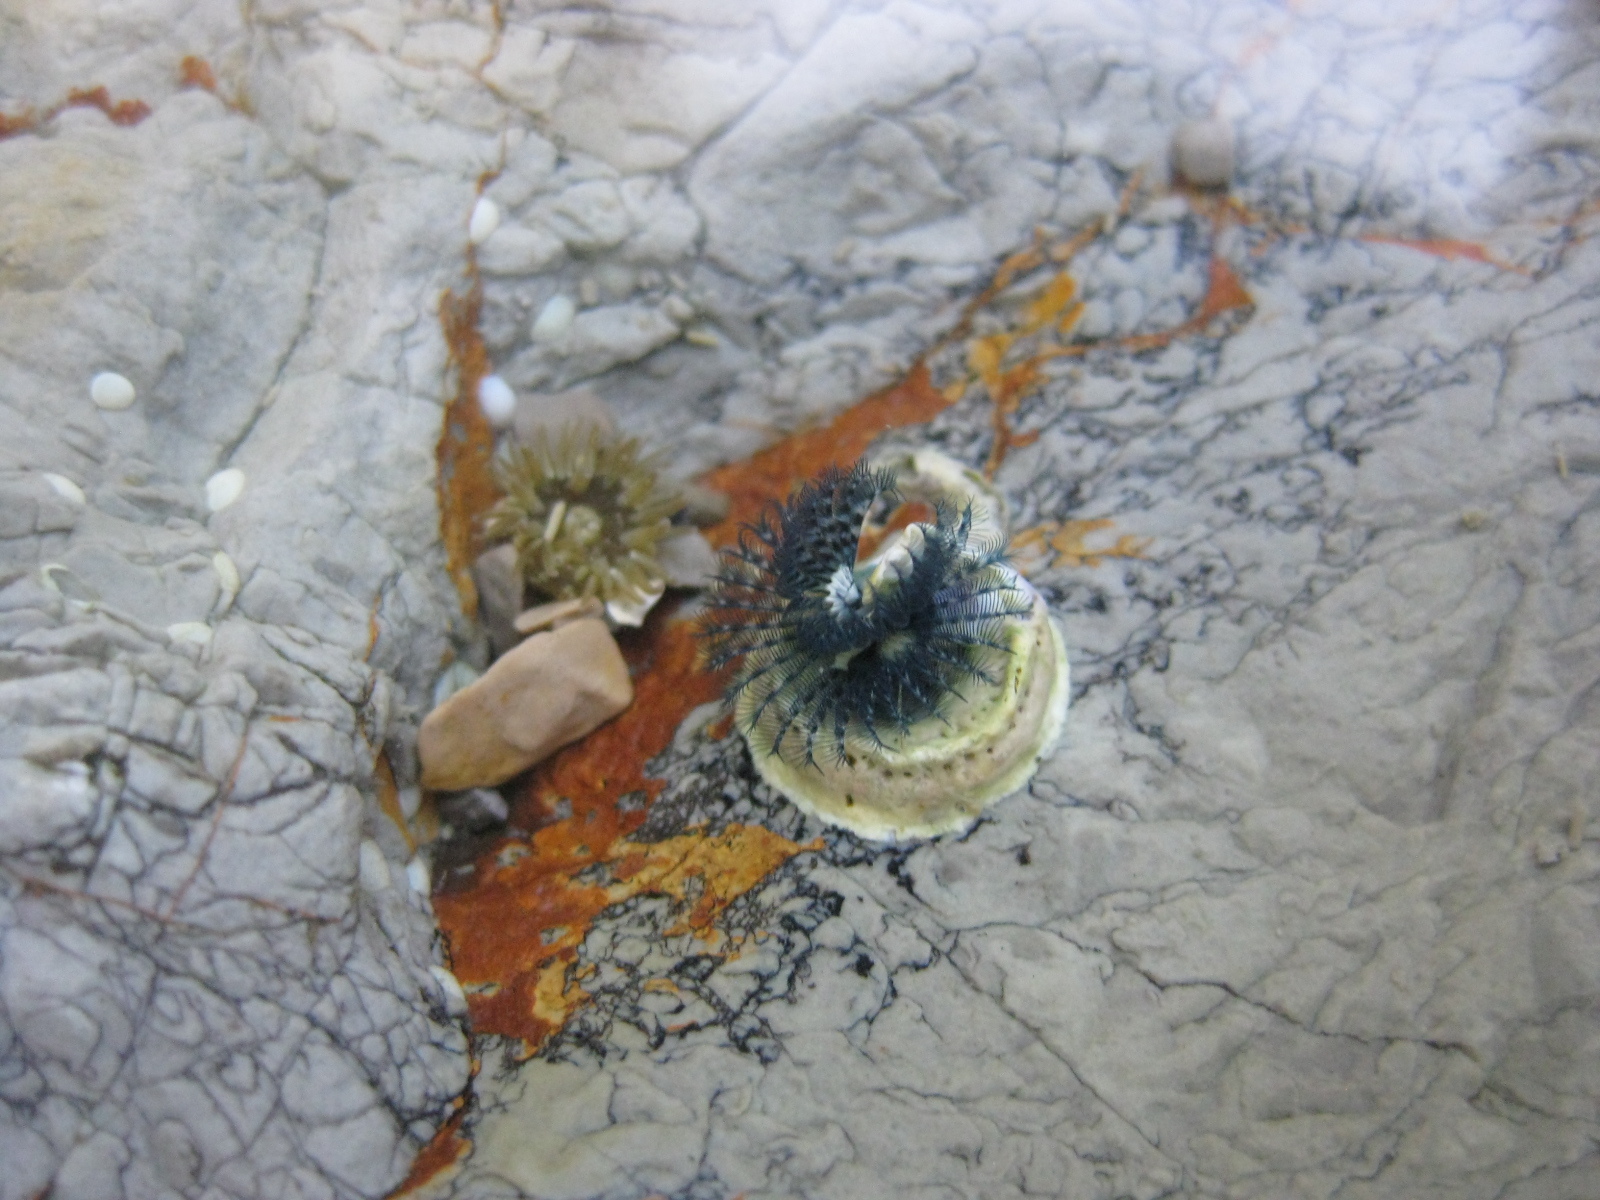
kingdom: Animalia
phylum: Annelida
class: Polychaeta
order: Sabellida
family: Serpulidae
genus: Spirobranchus
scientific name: Spirobranchus cariniferus
